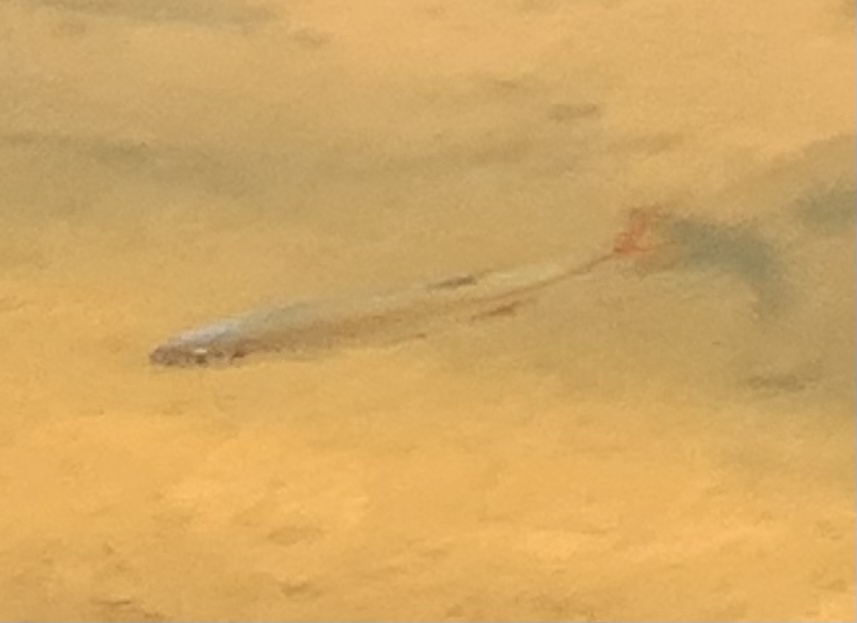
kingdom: Animalia
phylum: Chordata
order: Cypriniformes
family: Cyprinidae
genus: Lythrurus
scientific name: Lythrurus umbratilis
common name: Redfin shiner
